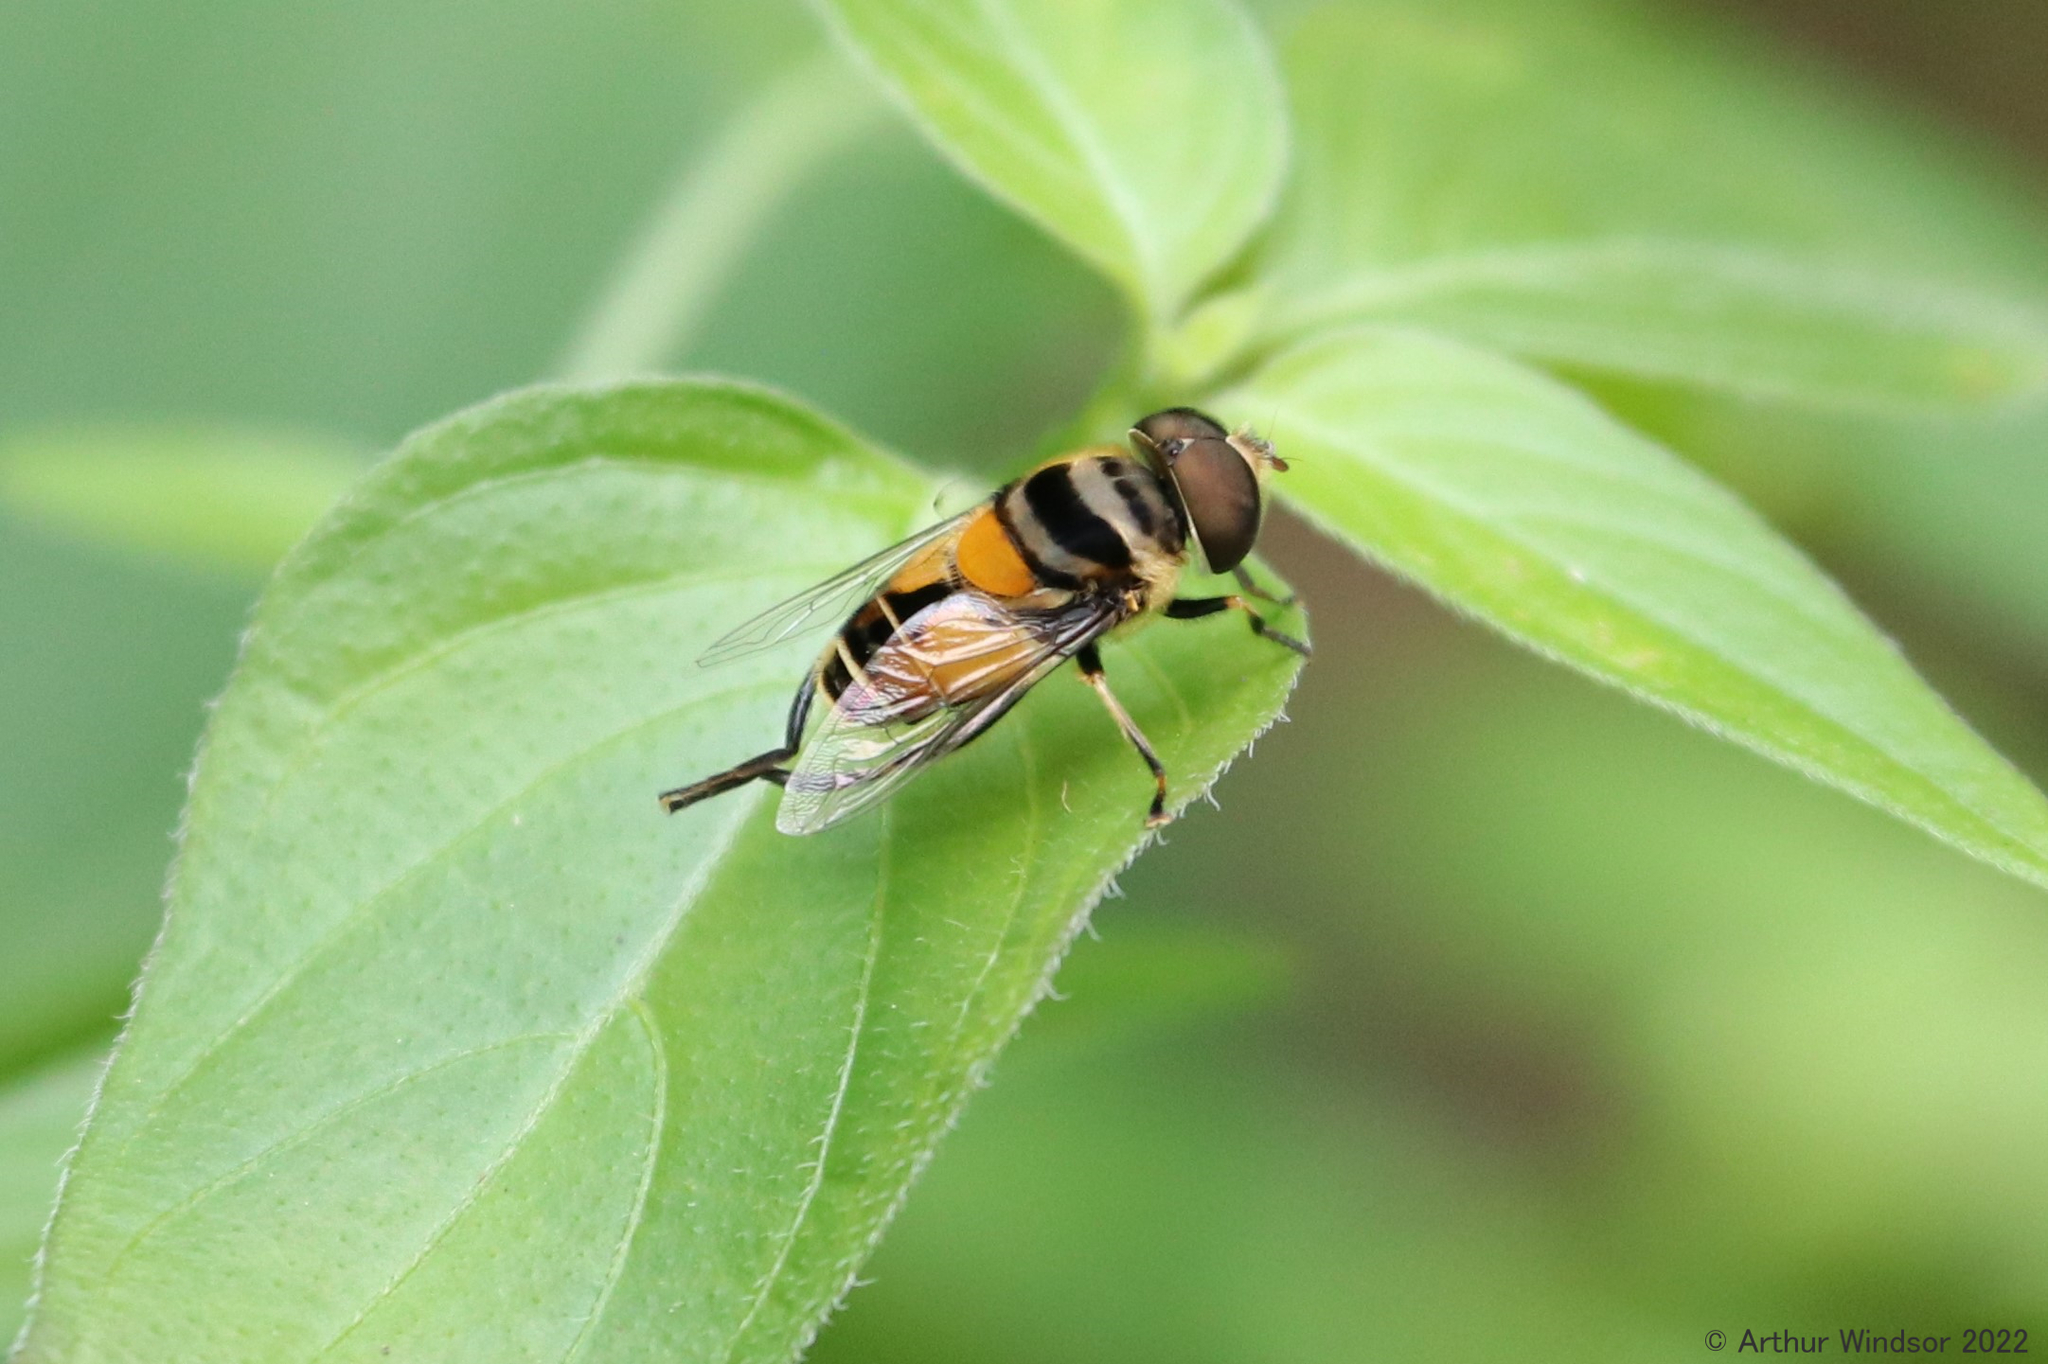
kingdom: Animalia
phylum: Arthropoda
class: Insecta
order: Diptera
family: Syrphidae
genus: Palpada
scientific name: Palpada agrorum
